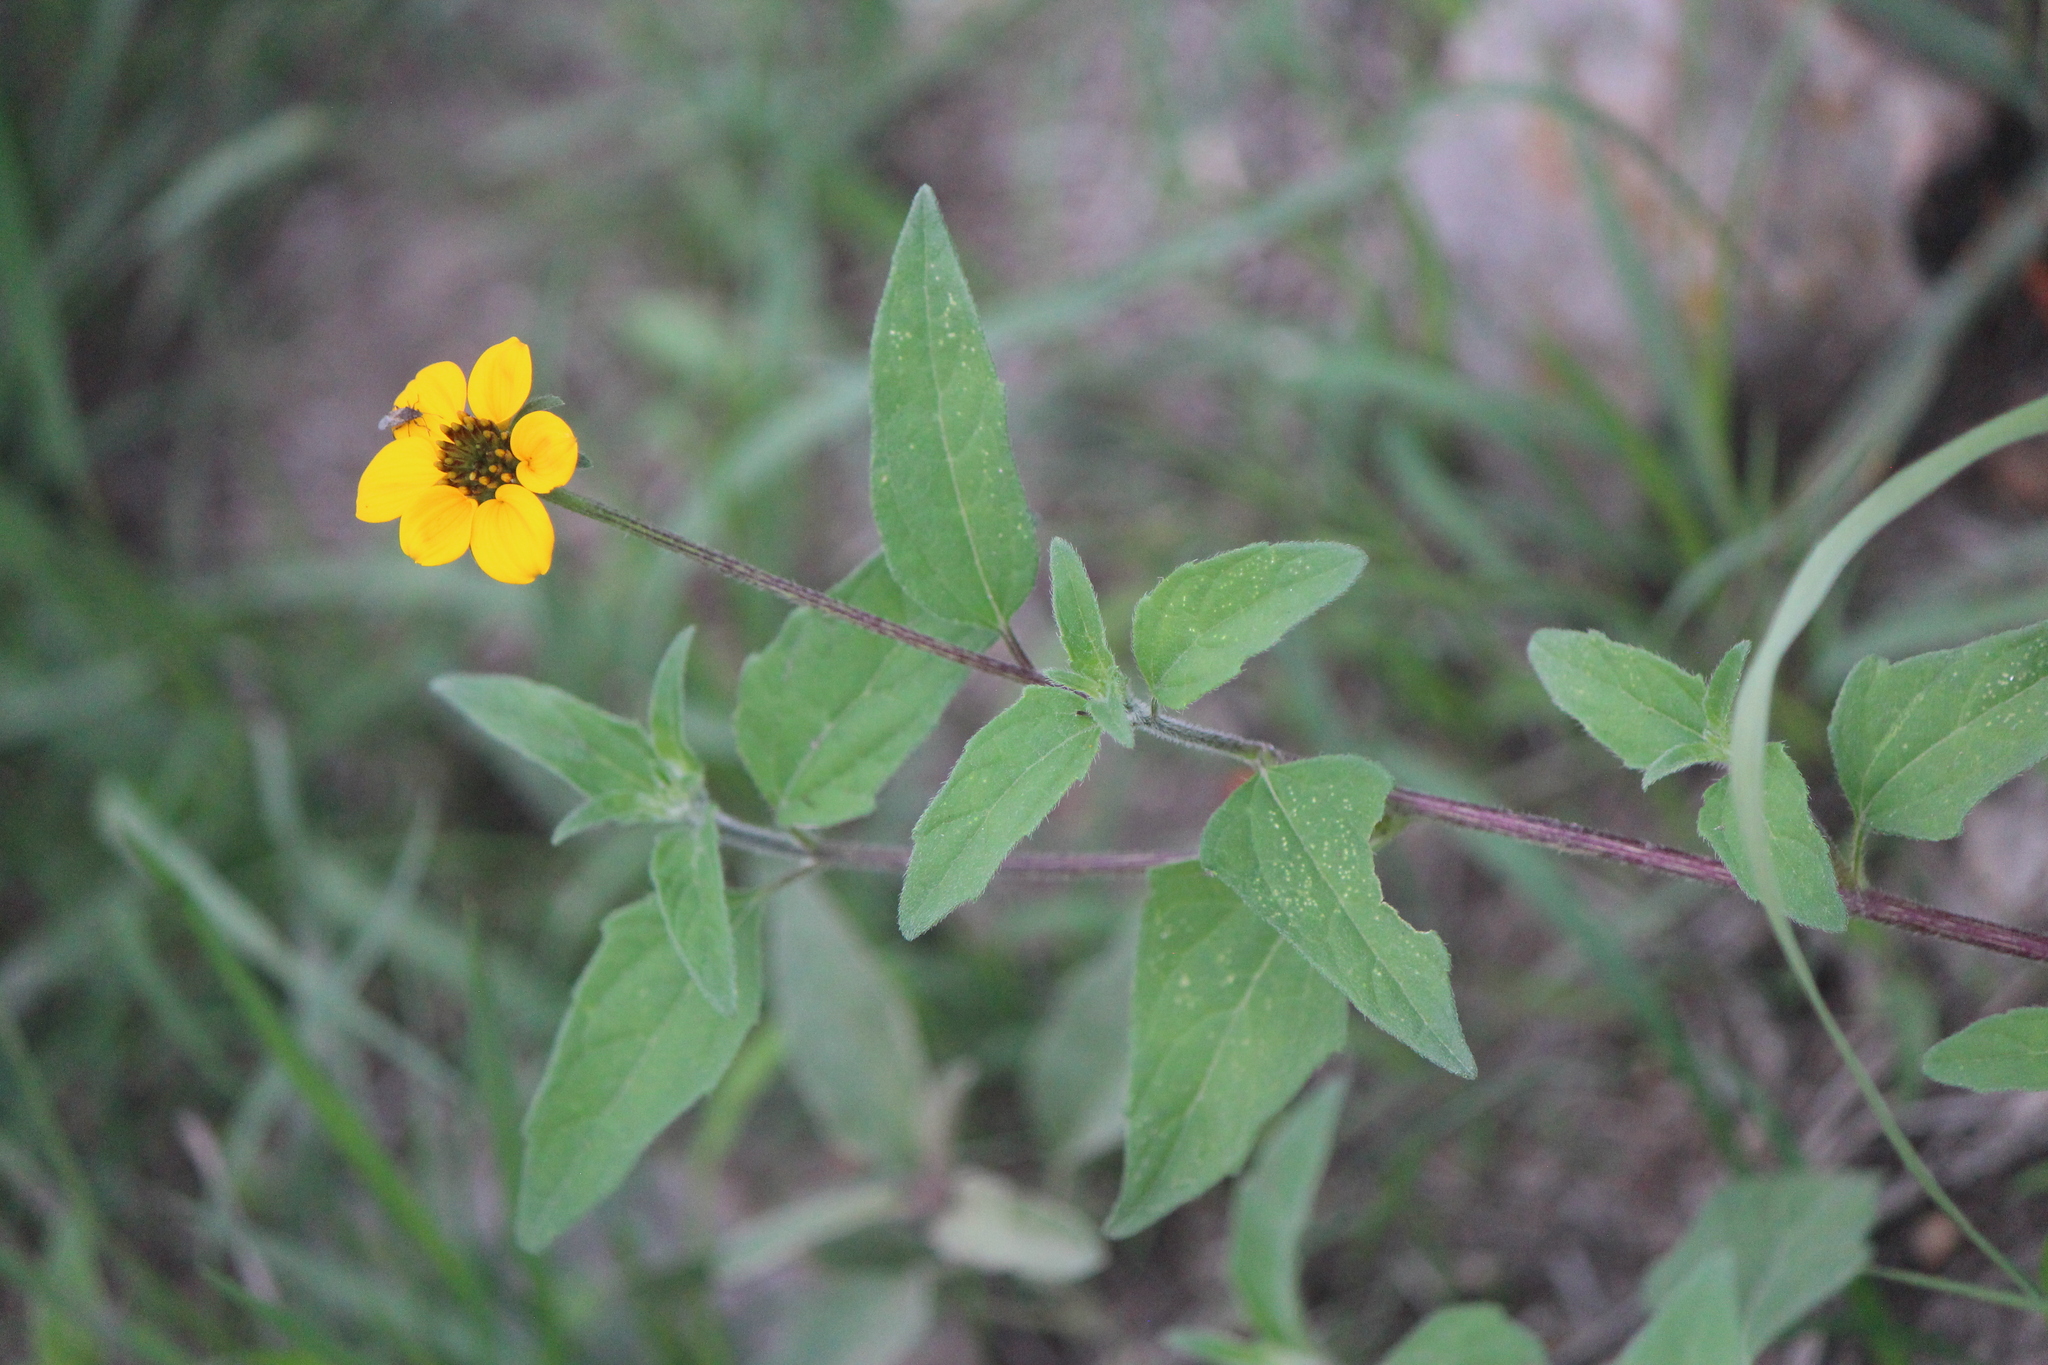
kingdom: Plantae
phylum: Tracheophyta
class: Magnoliopsida
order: Asterales
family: Asteraceae
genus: Sclerocarpus
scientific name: Sclerocarpus uniserialis
